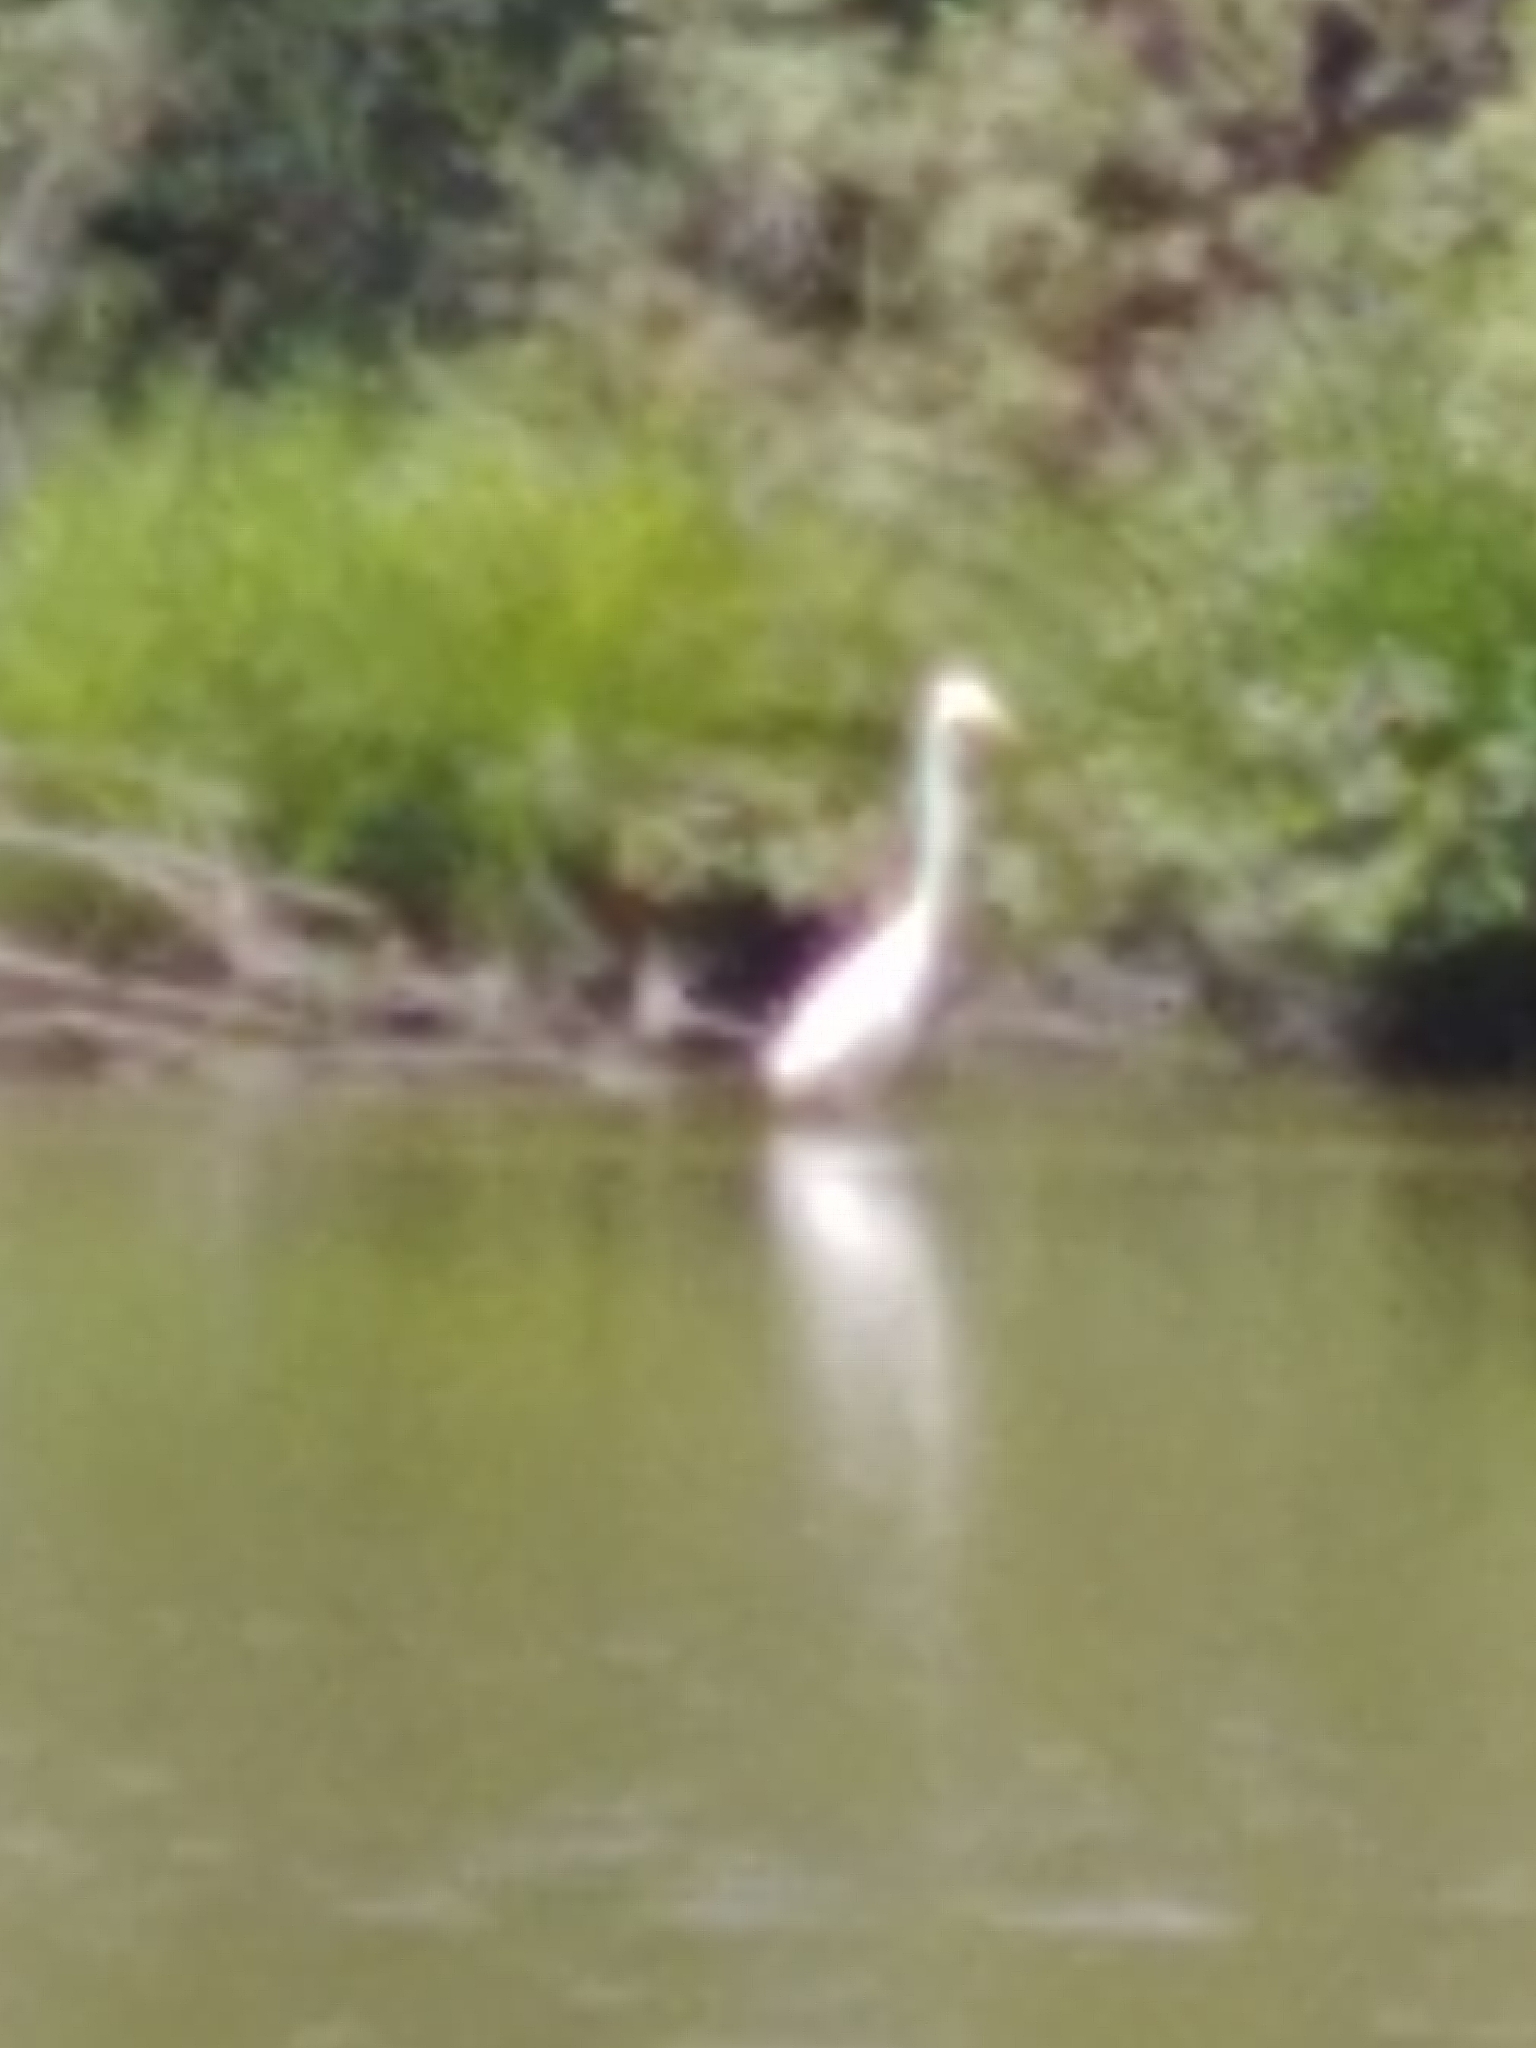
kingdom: Animalia
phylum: Chordata
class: Aves
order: Pelecaniformes
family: Ardeidae
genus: Ardea
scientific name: Ardea alba
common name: Great egret
